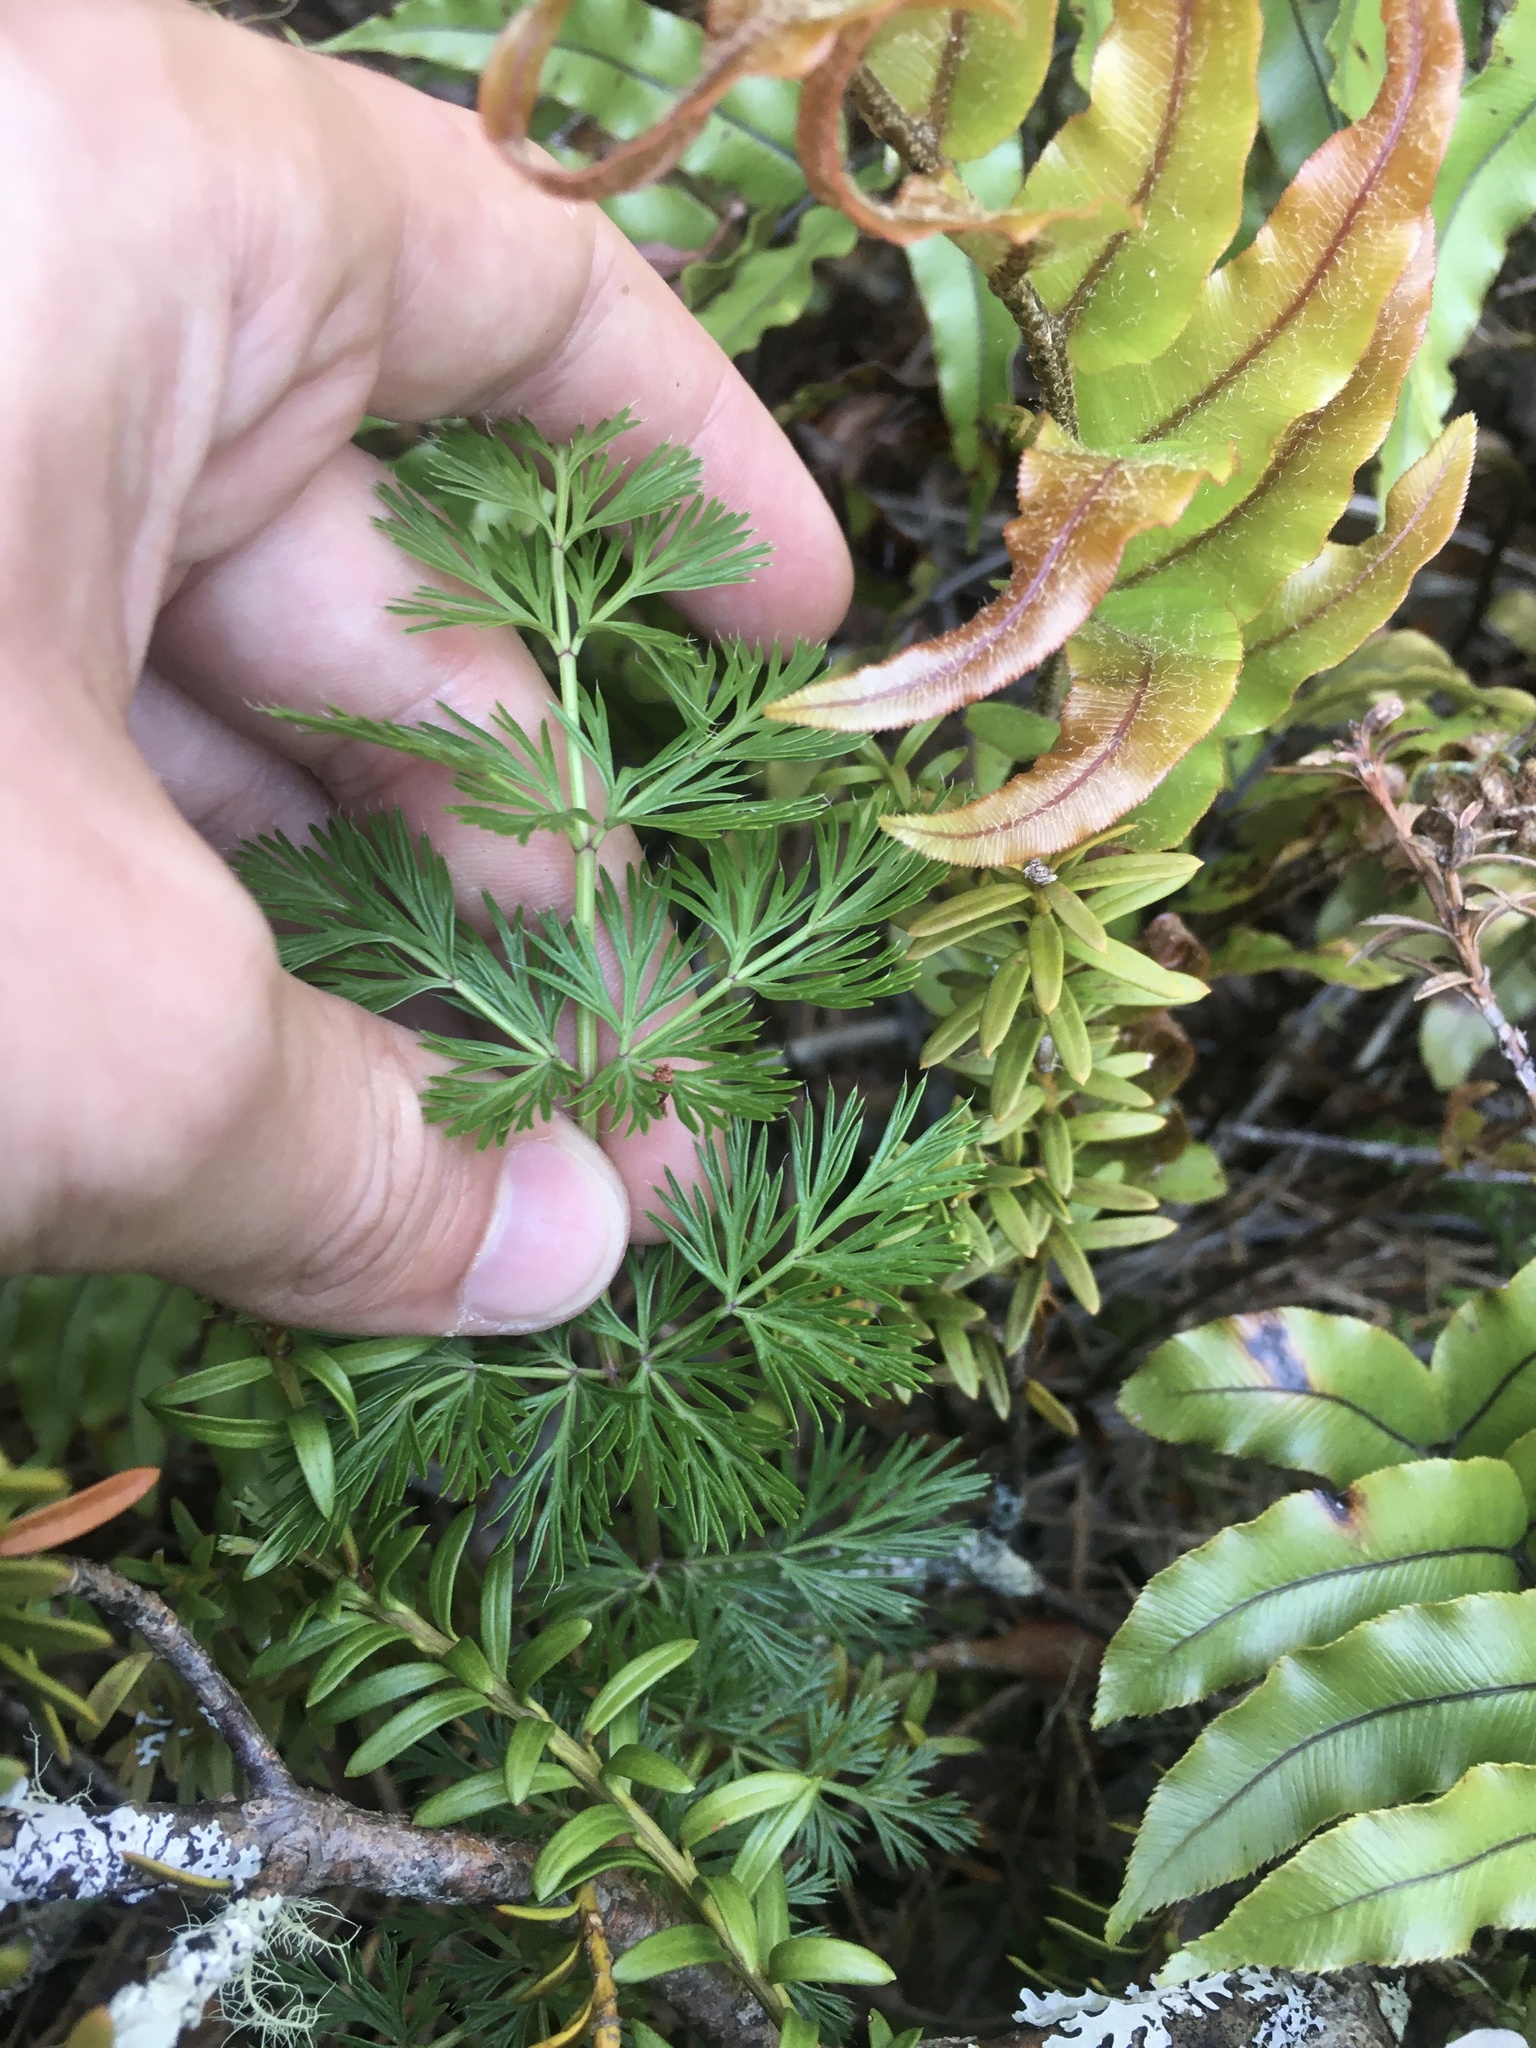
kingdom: Plantae
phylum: Tracheophyta
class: Magnoliopsida
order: Apiales
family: Apiaceae
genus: Anisotome
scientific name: Anisotome haastii
